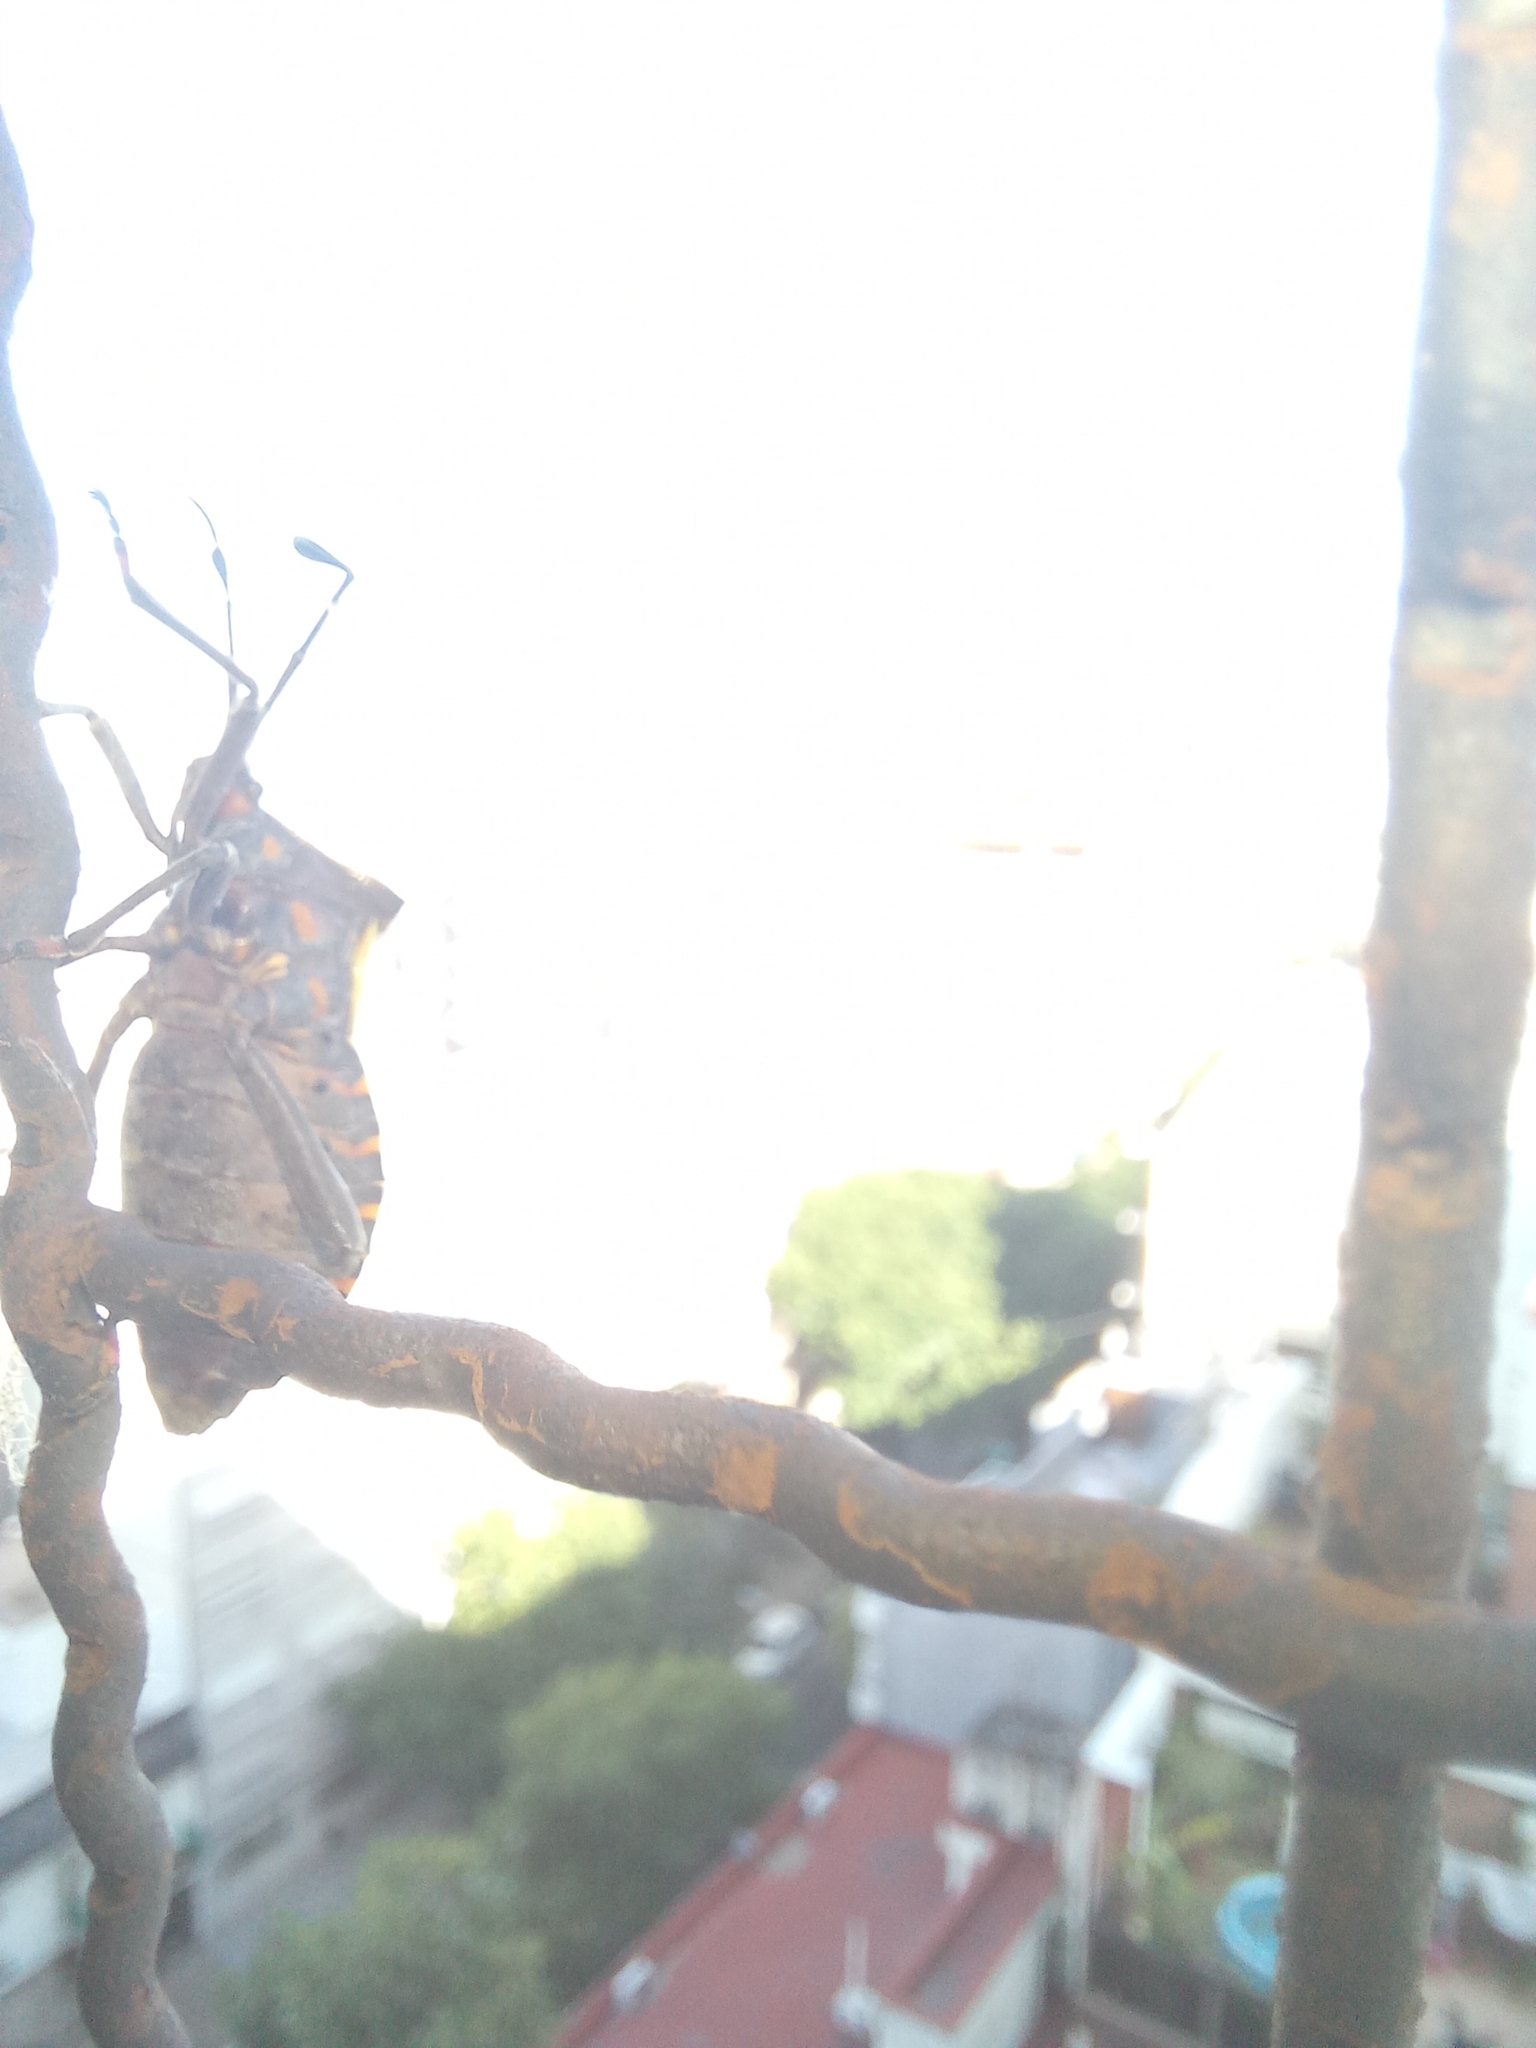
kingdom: Animalia
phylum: Arthropoda
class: Insecta
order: Hemiptera
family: Coreidae
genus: Pachylis
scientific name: Pachylis argentinus
